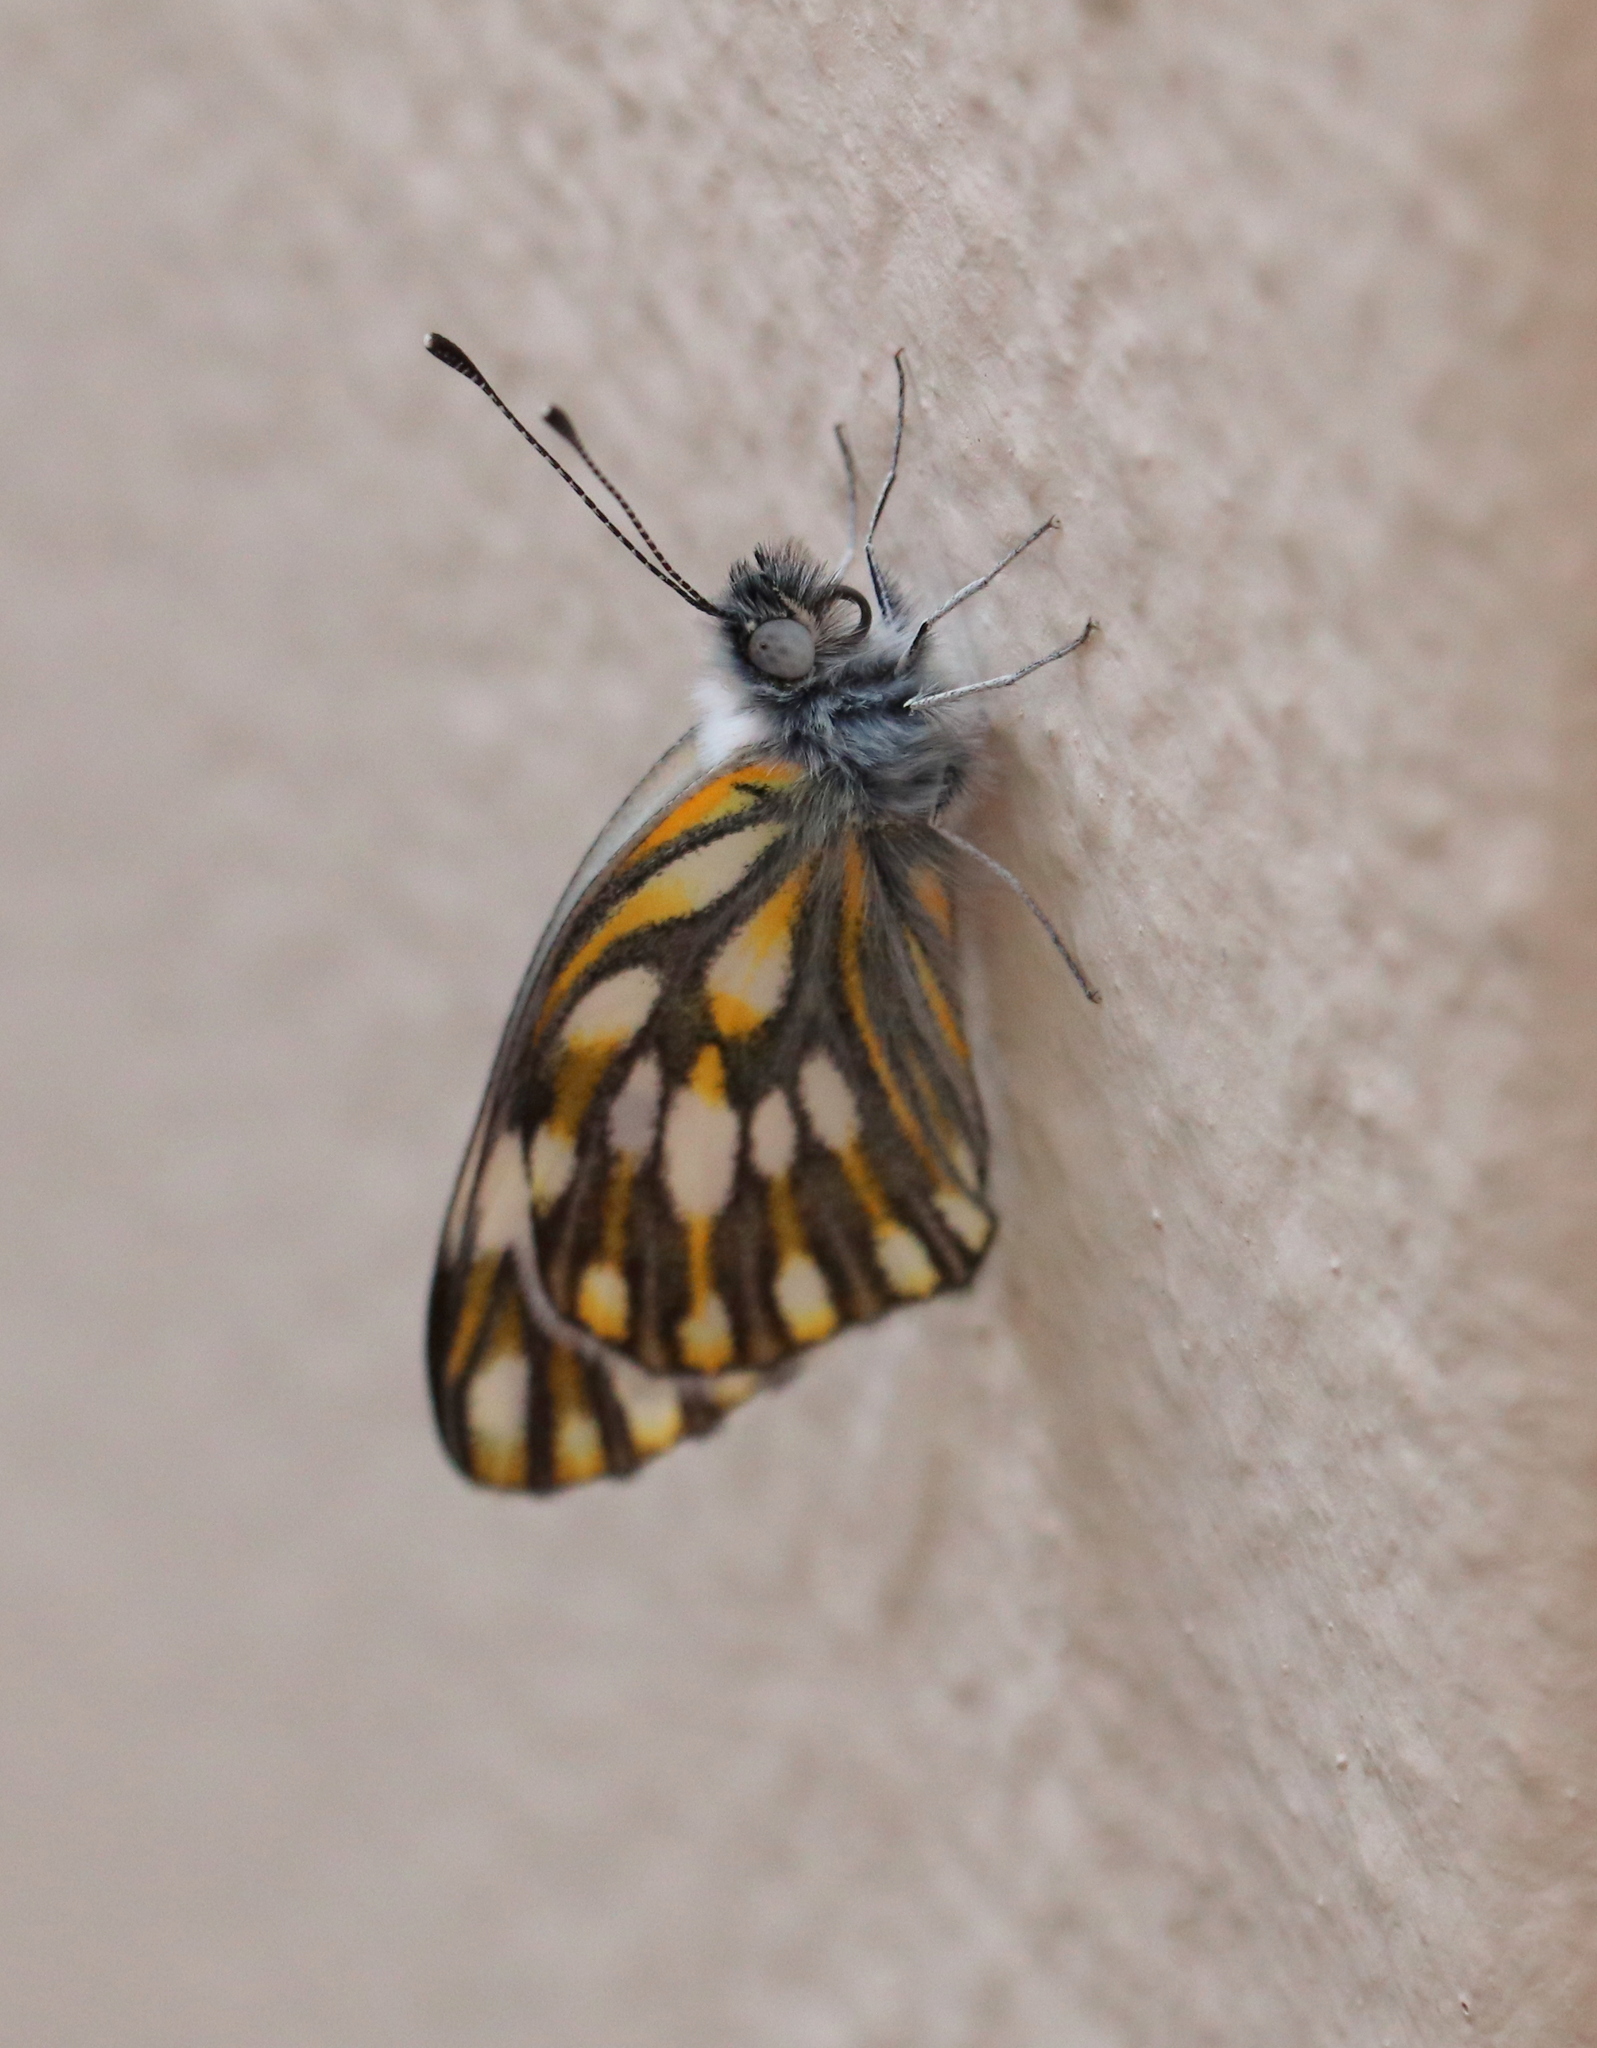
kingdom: Animalia
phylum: Arthropoda
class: Insecta
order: Lepidoptera
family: Pieridae
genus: Pontia
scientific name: Pontia helice
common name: Meadow white
